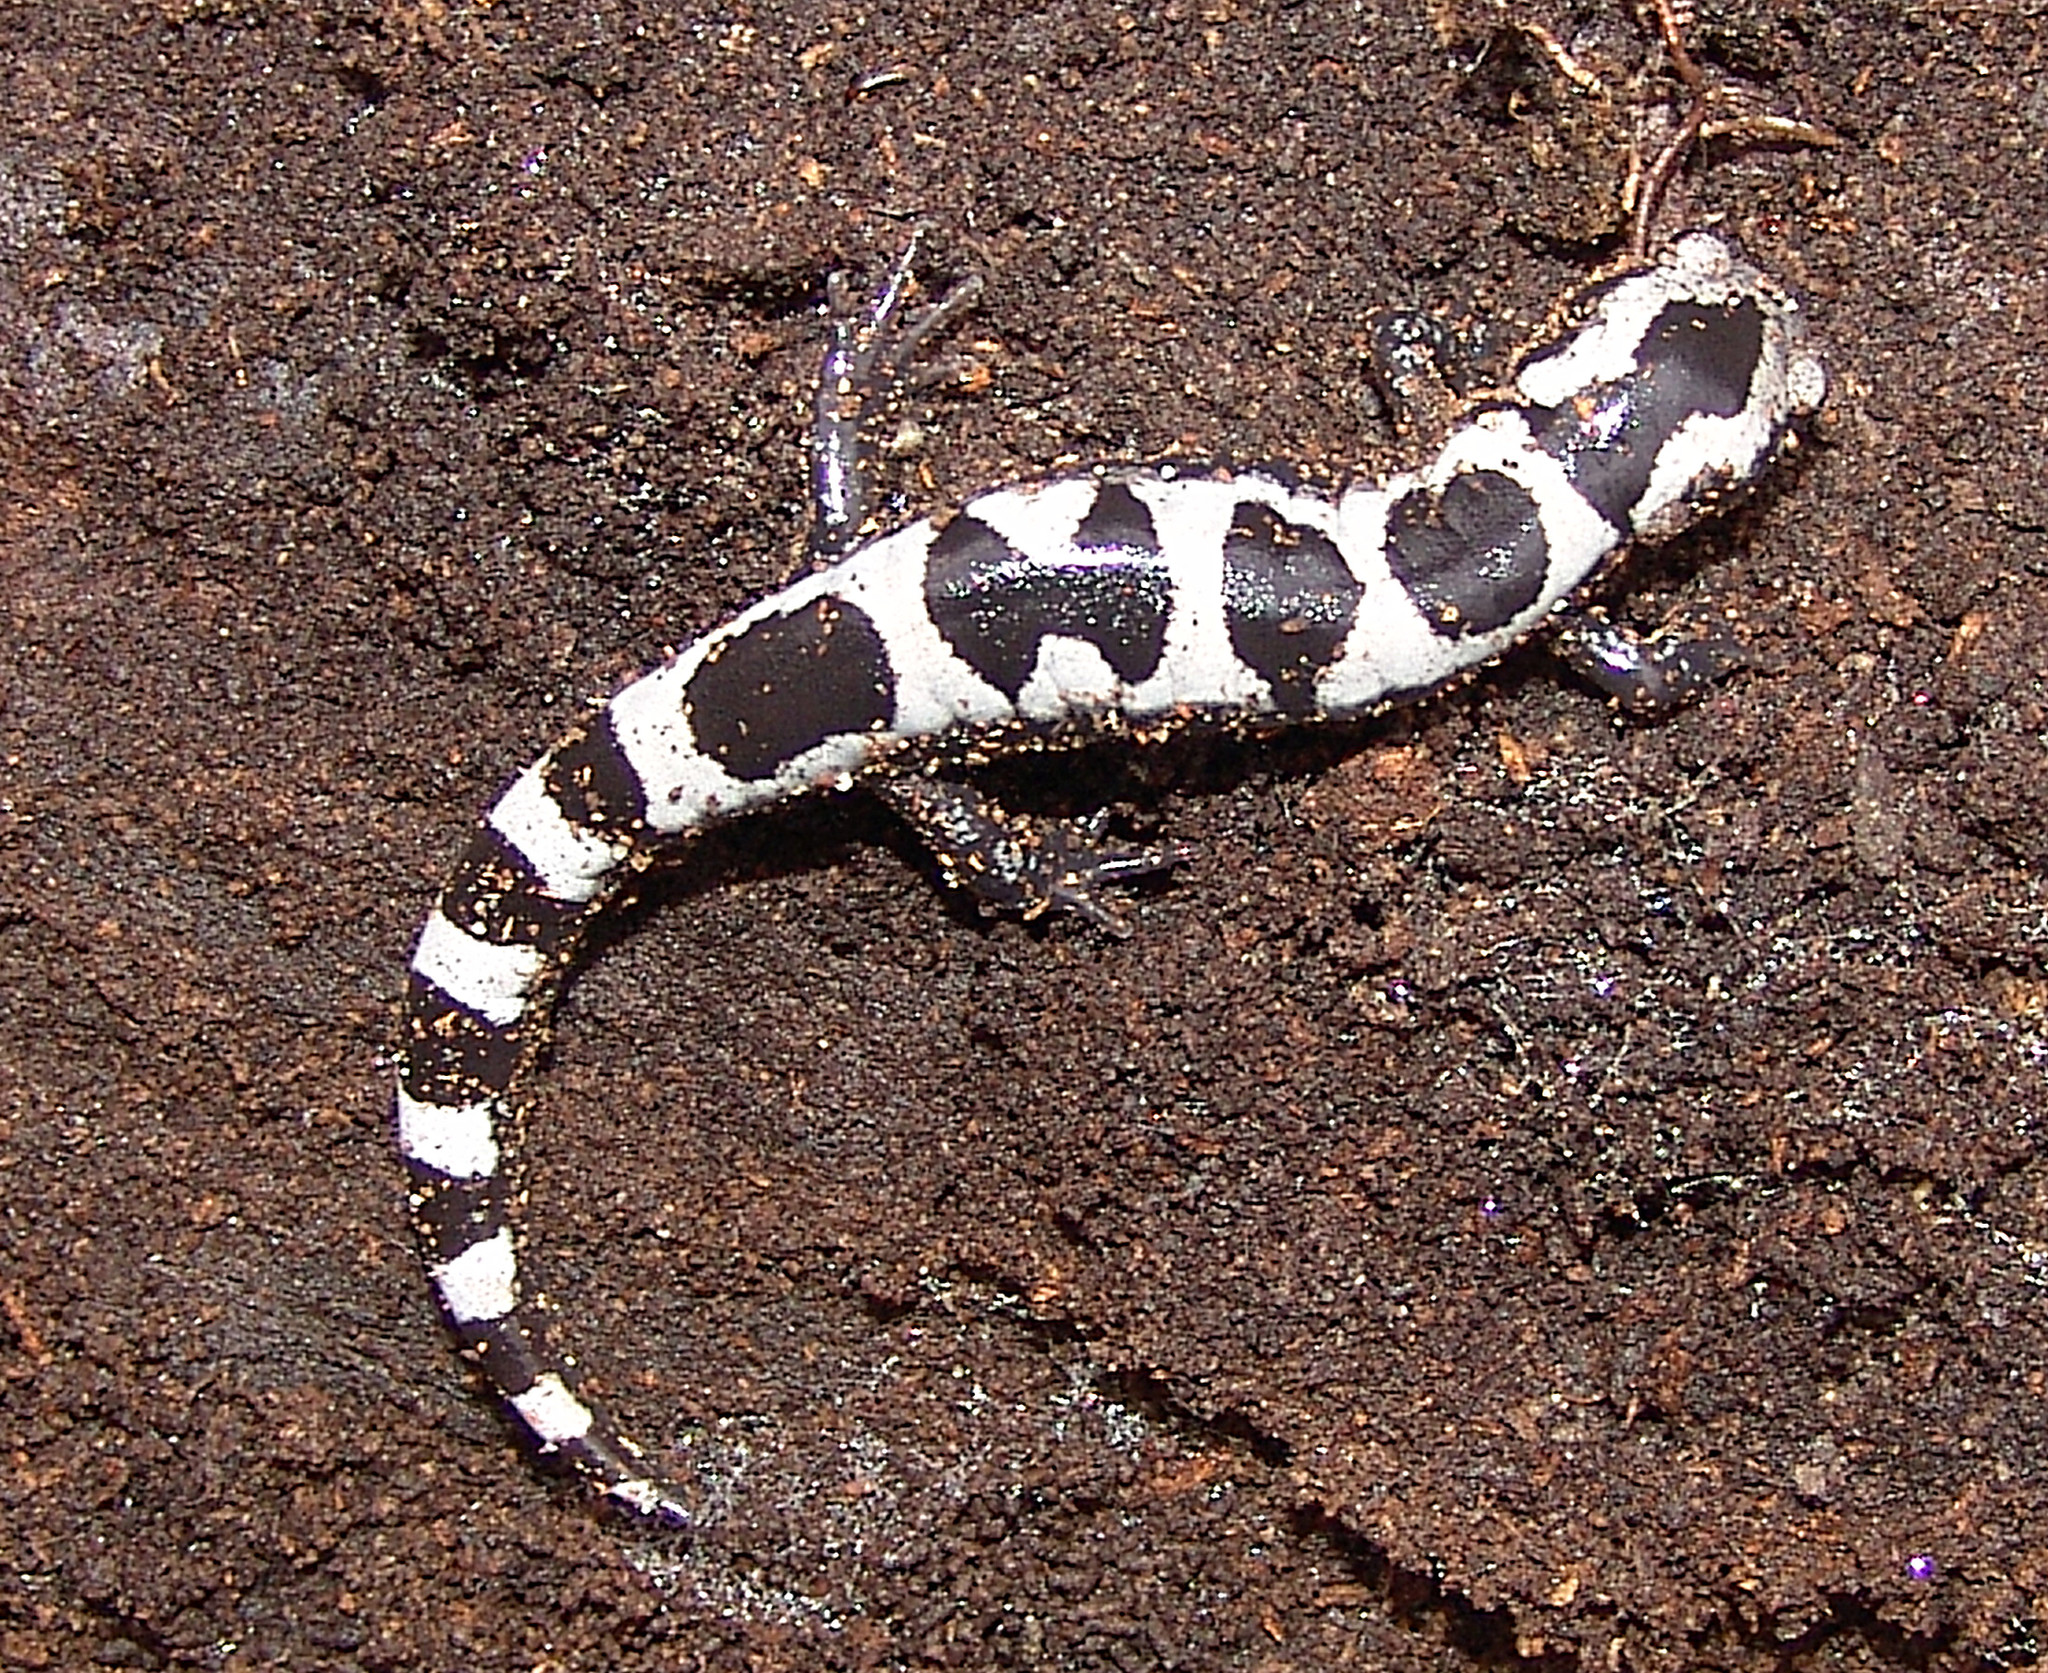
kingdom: Animalia
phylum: Chordata
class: Amphibia
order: Caudata
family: Ambystomatidae
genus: Ambystoma
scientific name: Ambystoma opacum
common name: Marbled salamander
